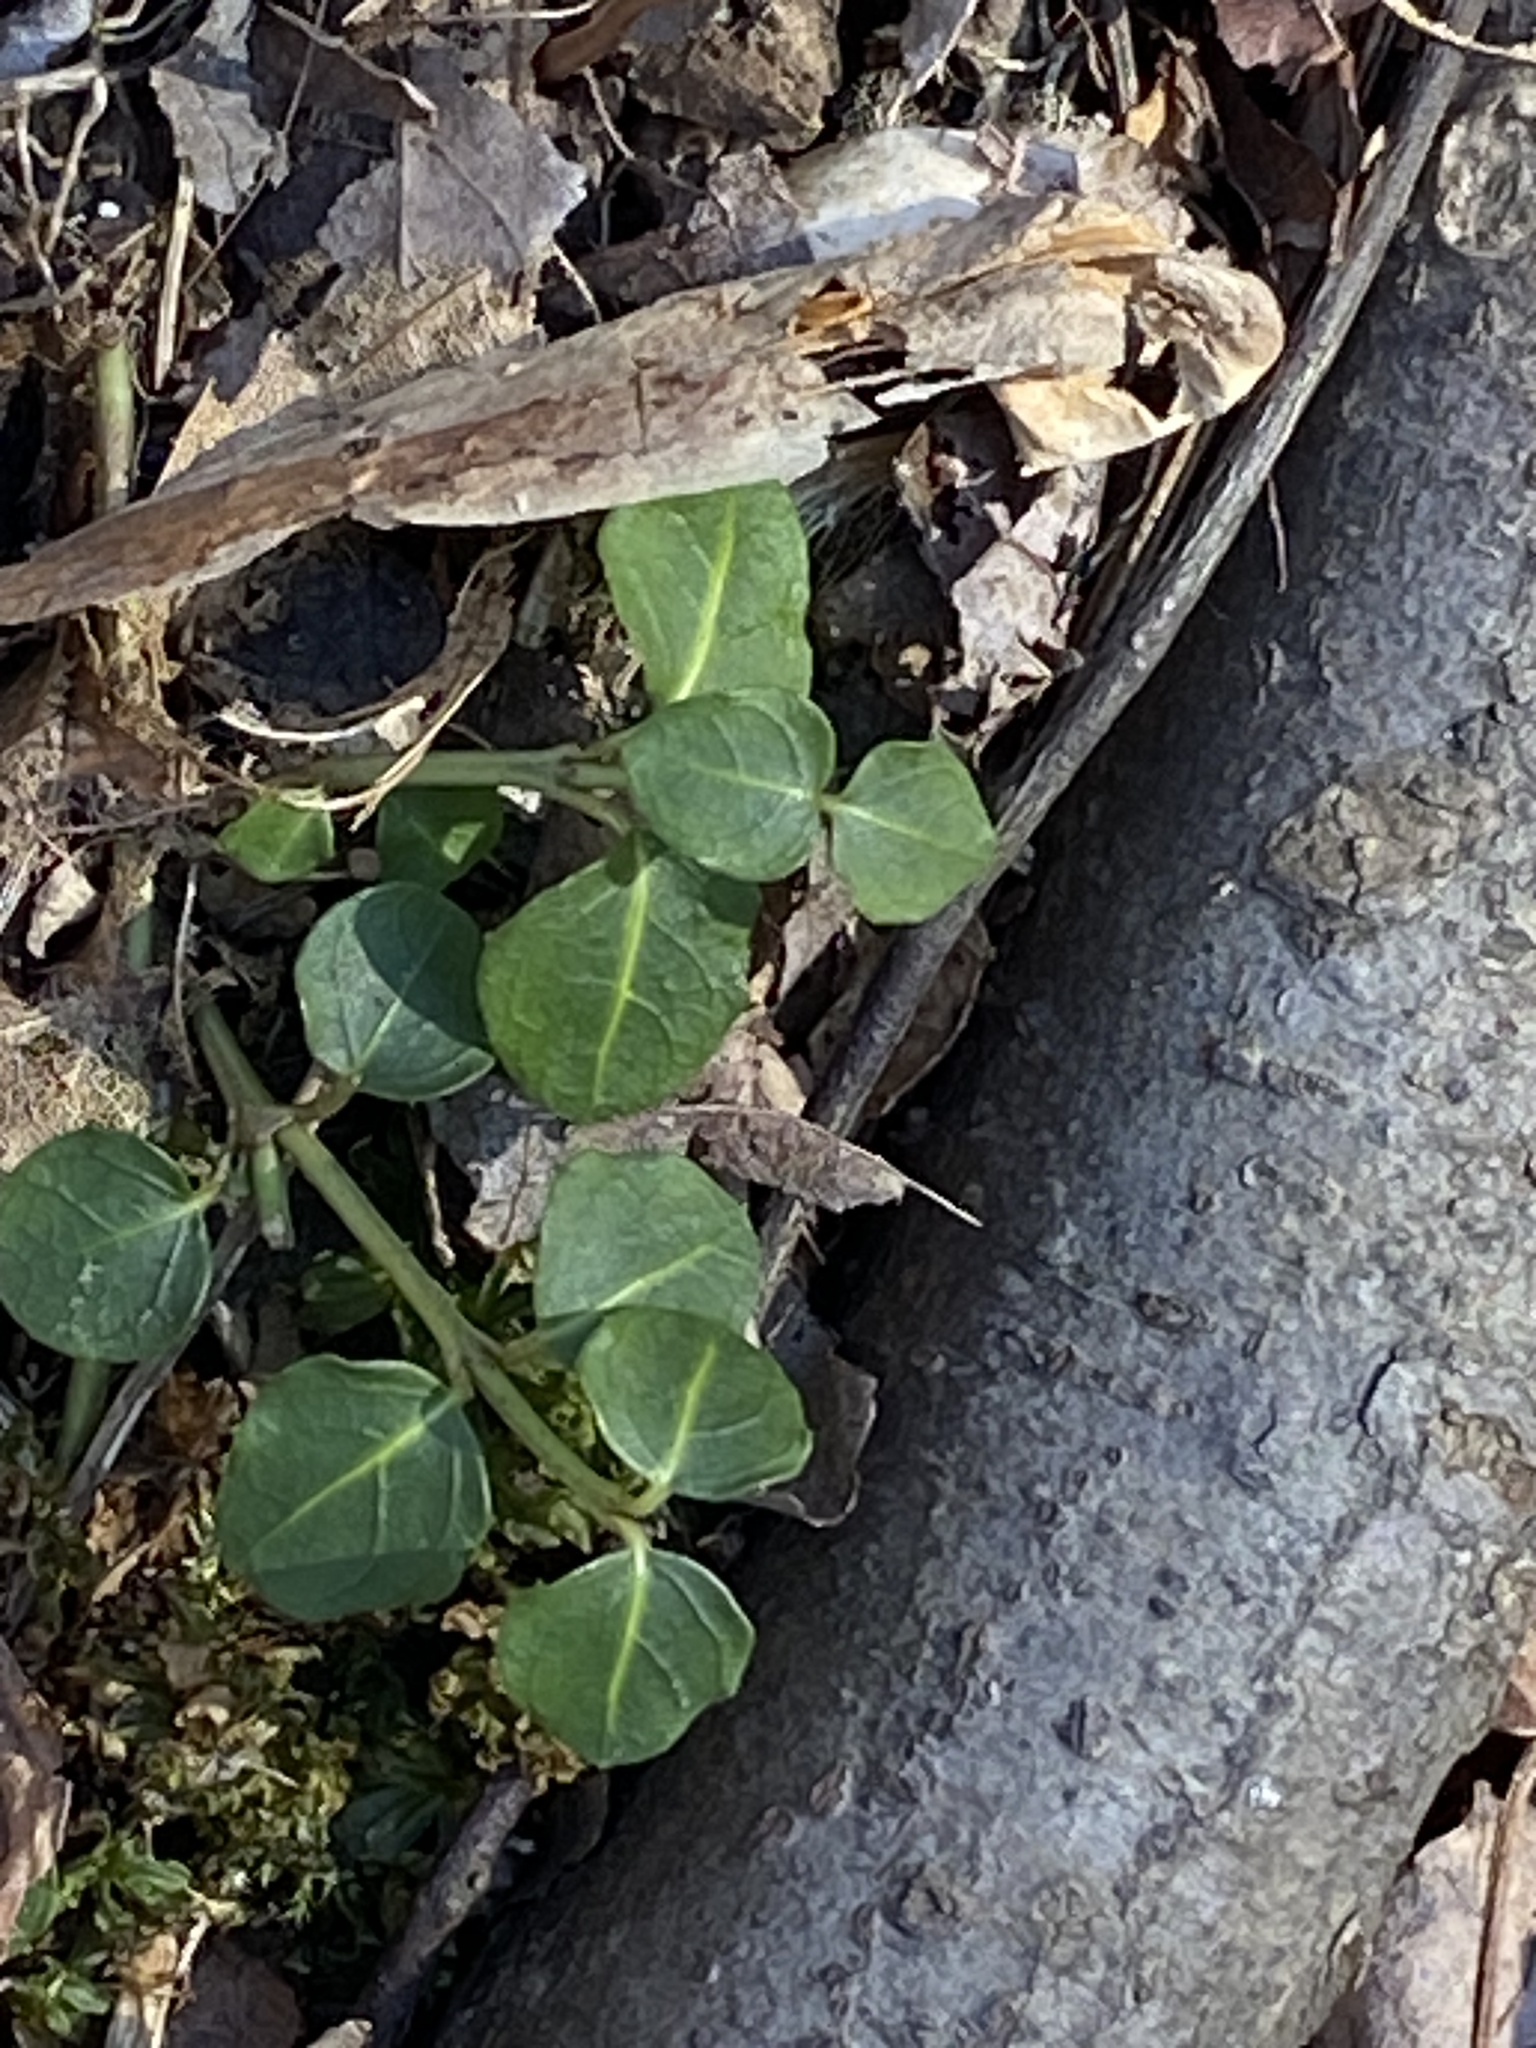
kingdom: Plantae
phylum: Tracheophyta
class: Magnoliopsida
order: Gentianales
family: Rubiaceae
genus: Mitchella
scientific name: Mitchella repens
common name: Partridge-berry
